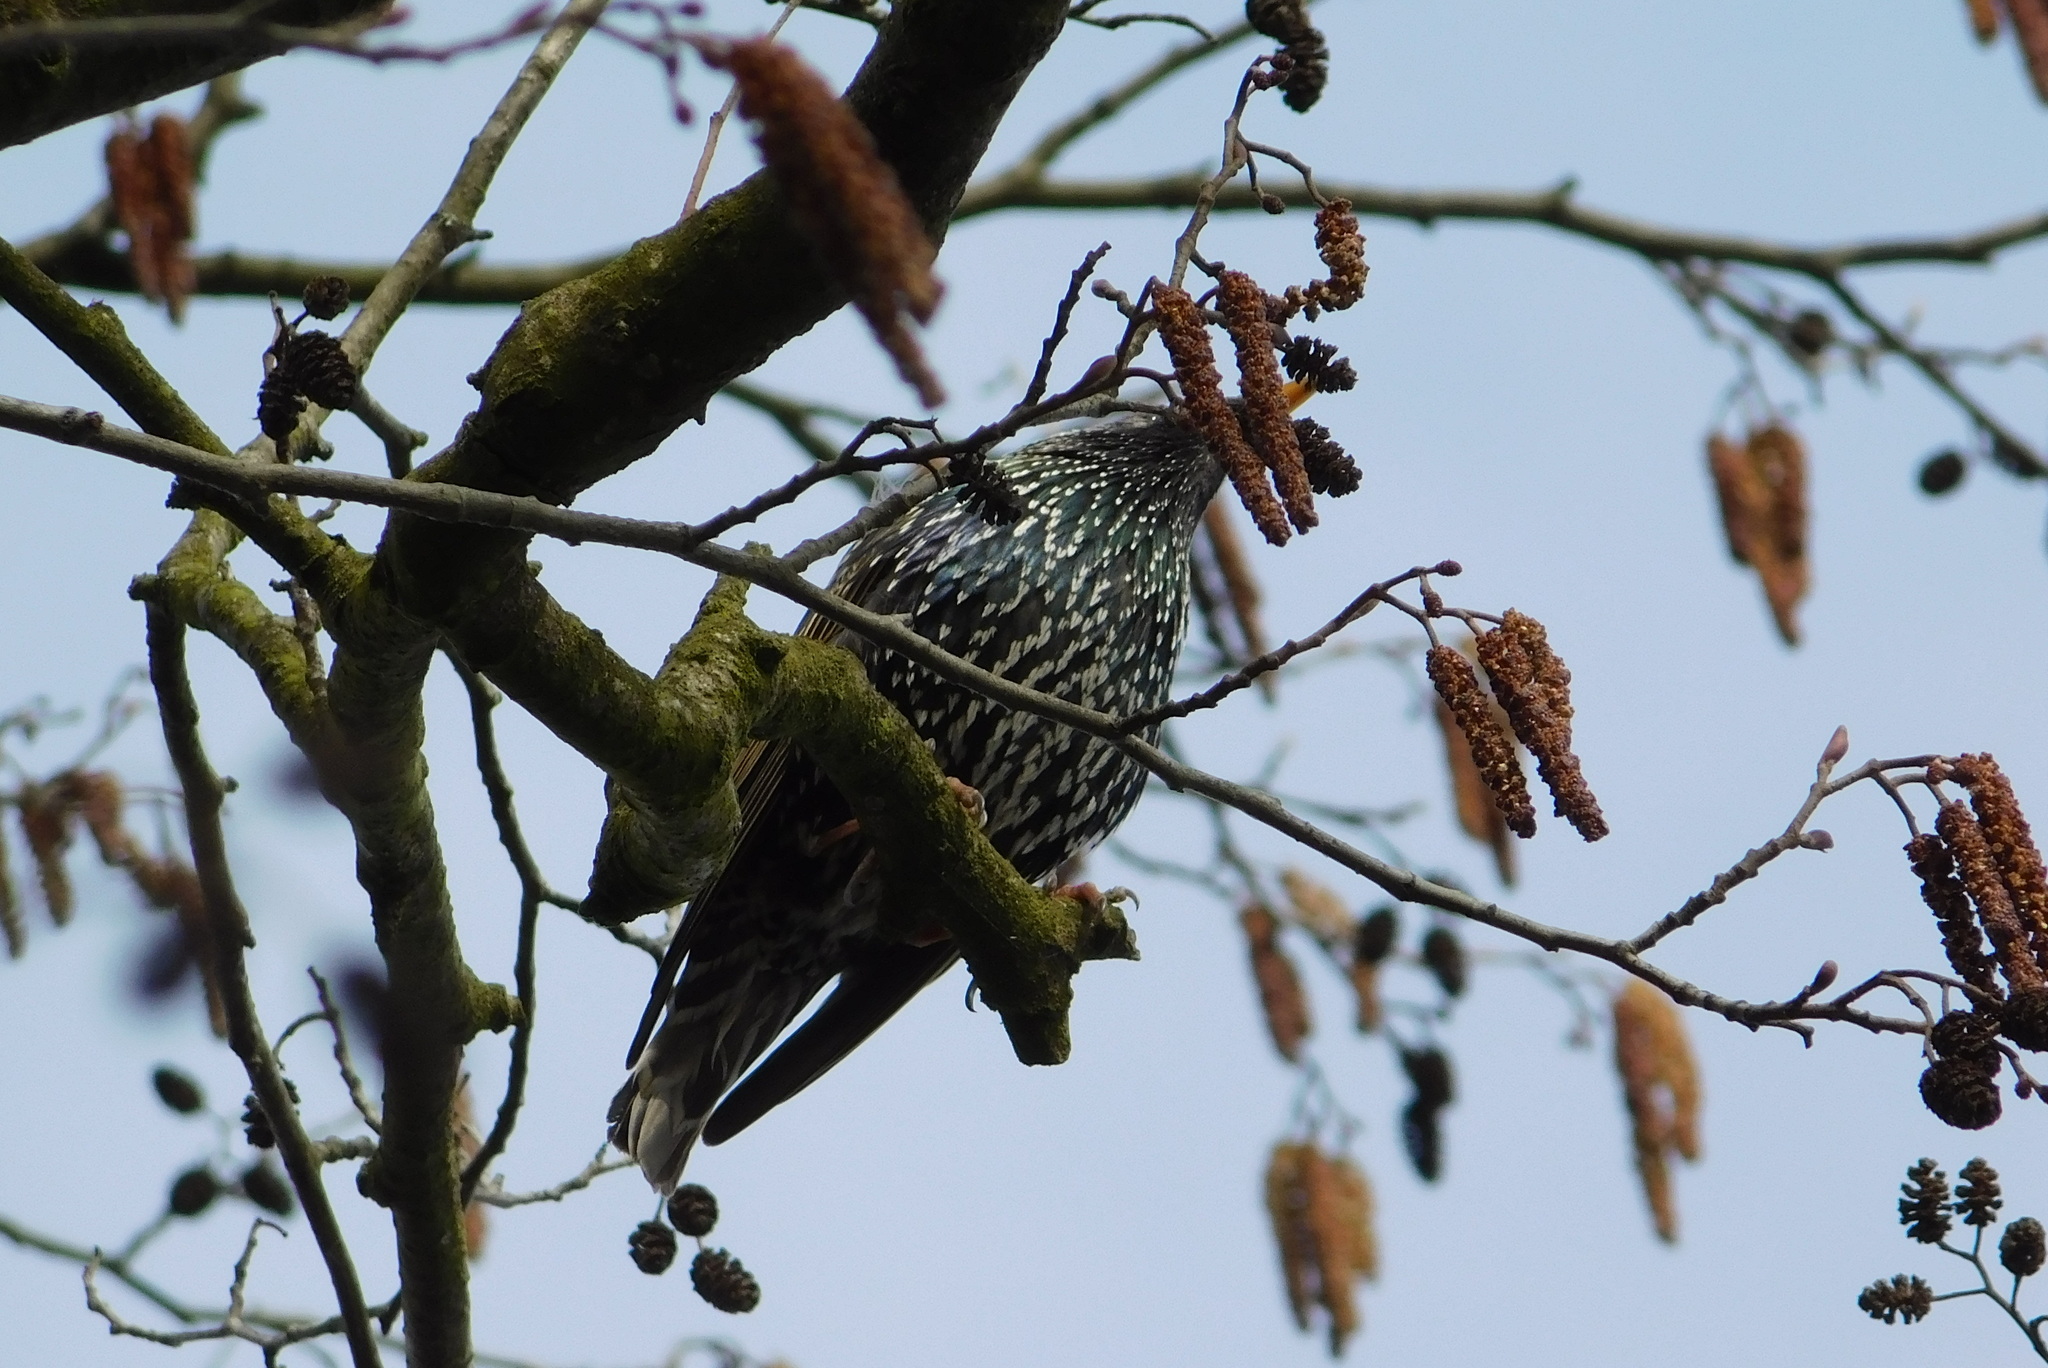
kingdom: Animalia
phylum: Chordata
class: Aves
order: Passeriformes
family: Sturnidae
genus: Sturnus
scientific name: Sturnus vulgaris
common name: Common starling
